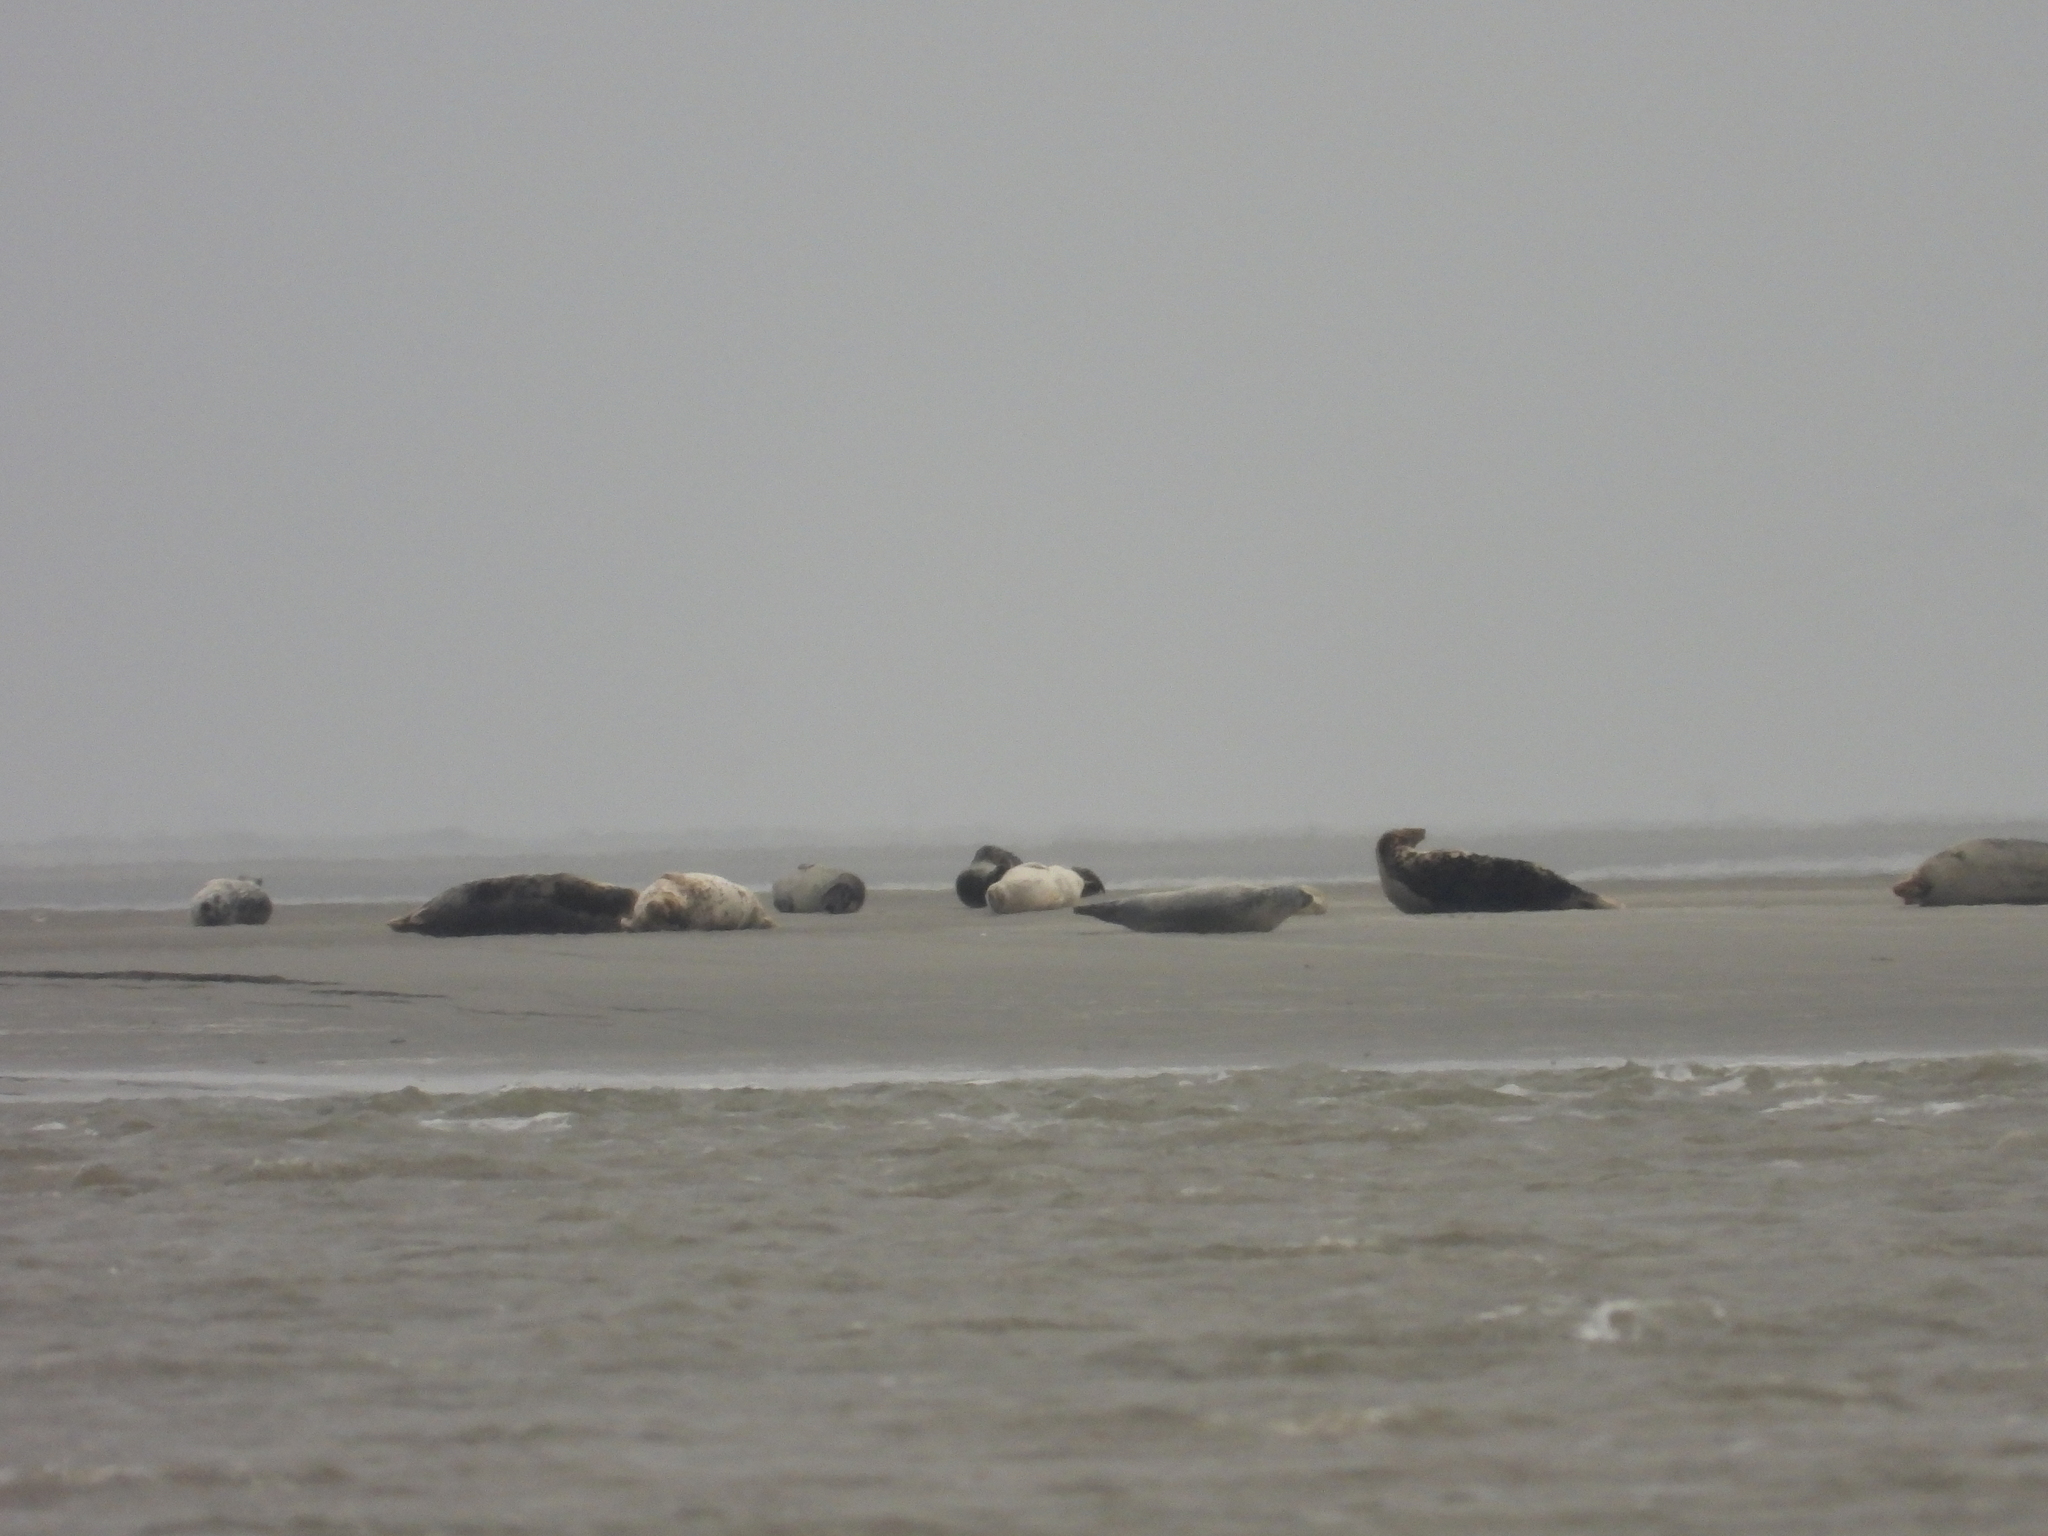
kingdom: Animalia
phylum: Chordata
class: Mammalia
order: Carnivora
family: Phocidae
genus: Halichoerus
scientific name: Halichoerus grypus
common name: Grey seal
